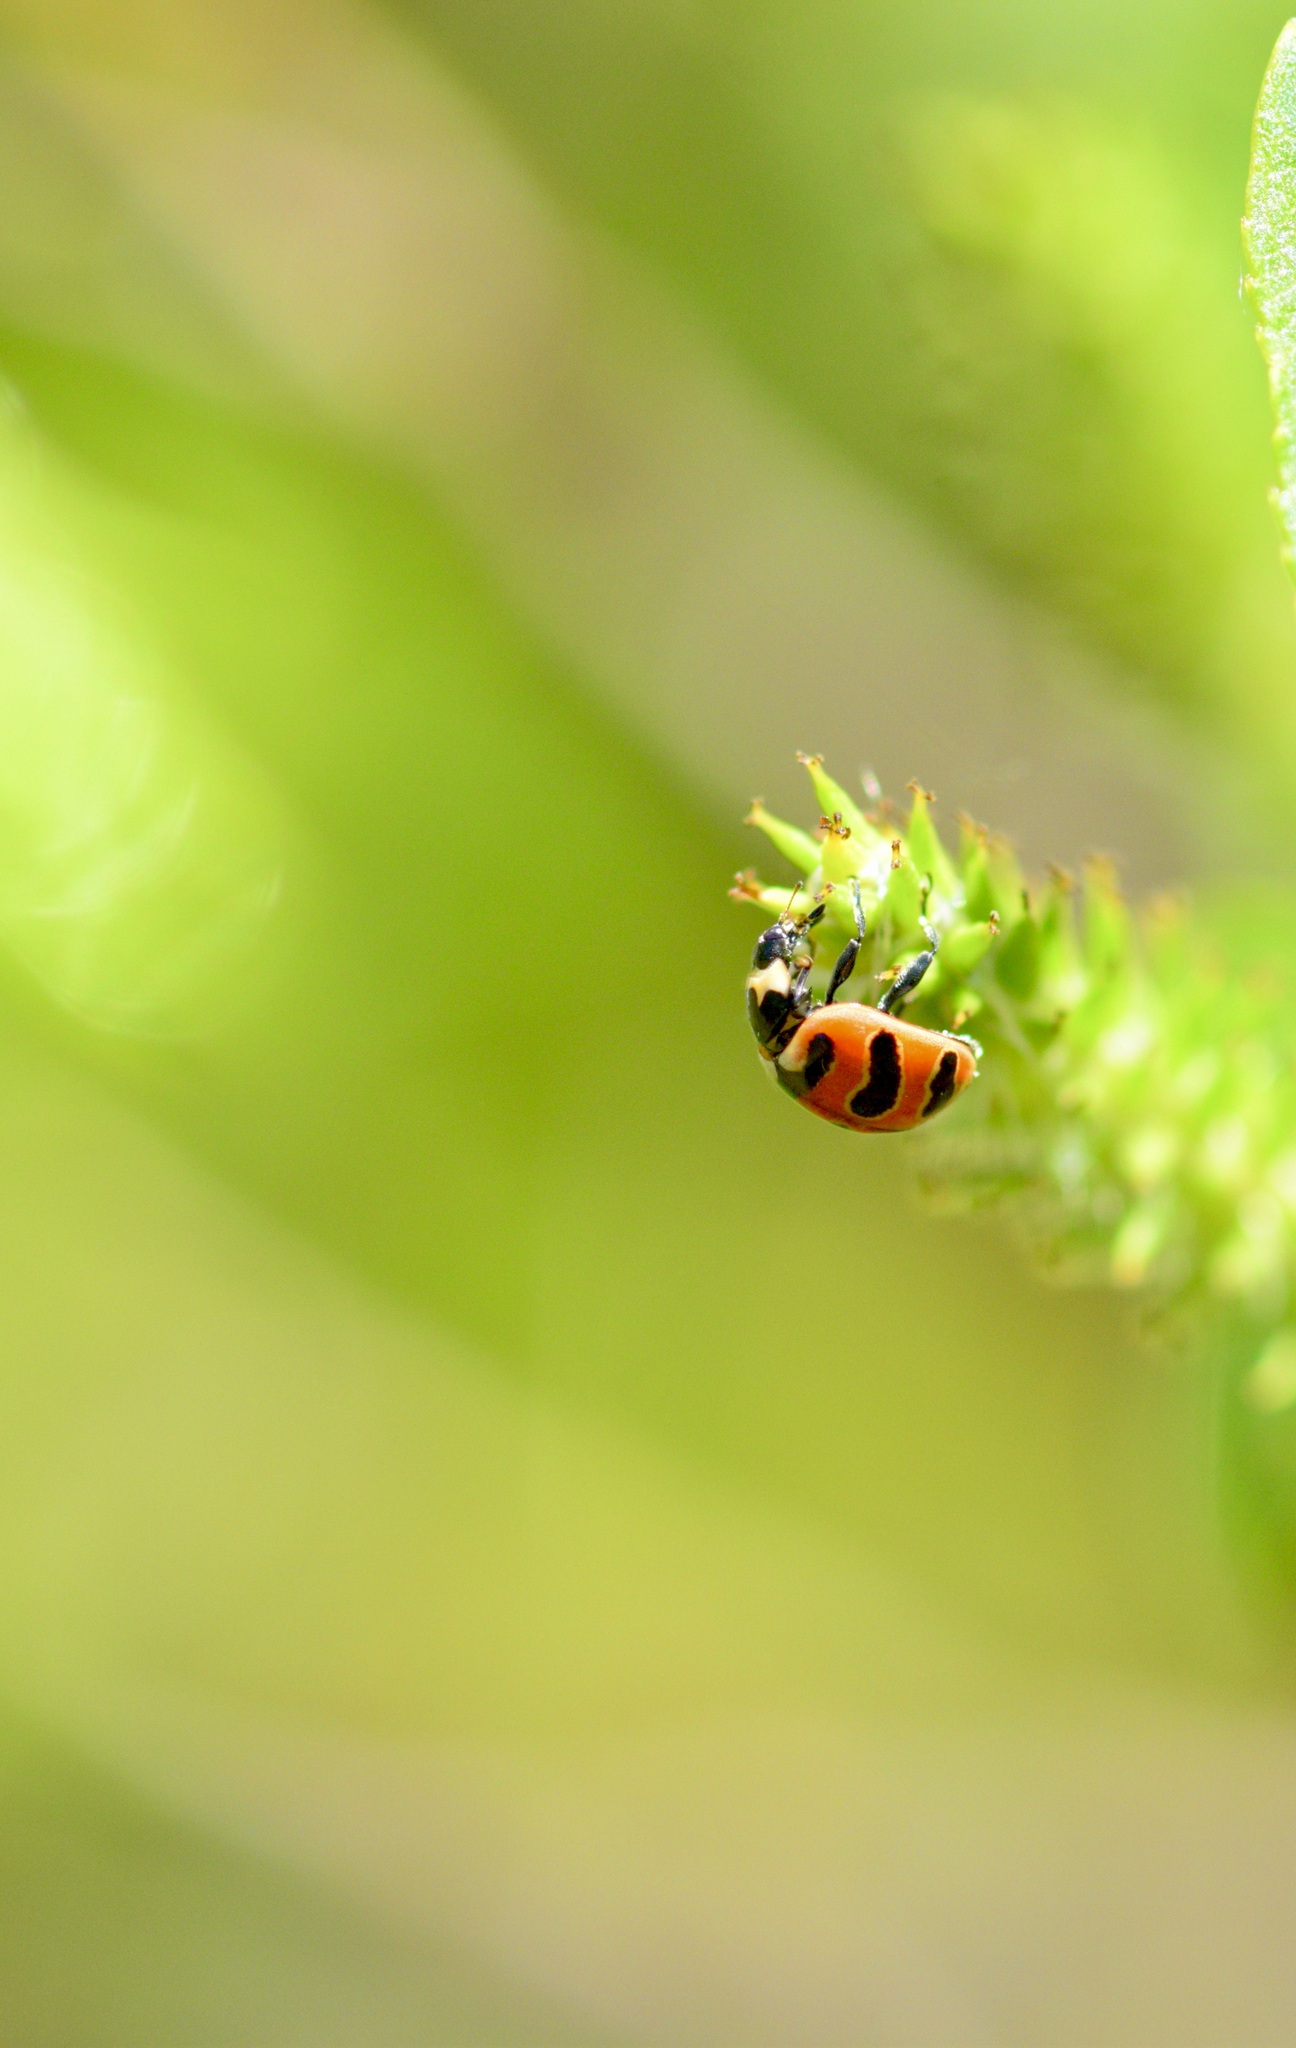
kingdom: Animalia
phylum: Arthropoda
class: Insecta
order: Coleoptera
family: Coccinellidae
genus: Coccinella
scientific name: Coccinella trifasciata
